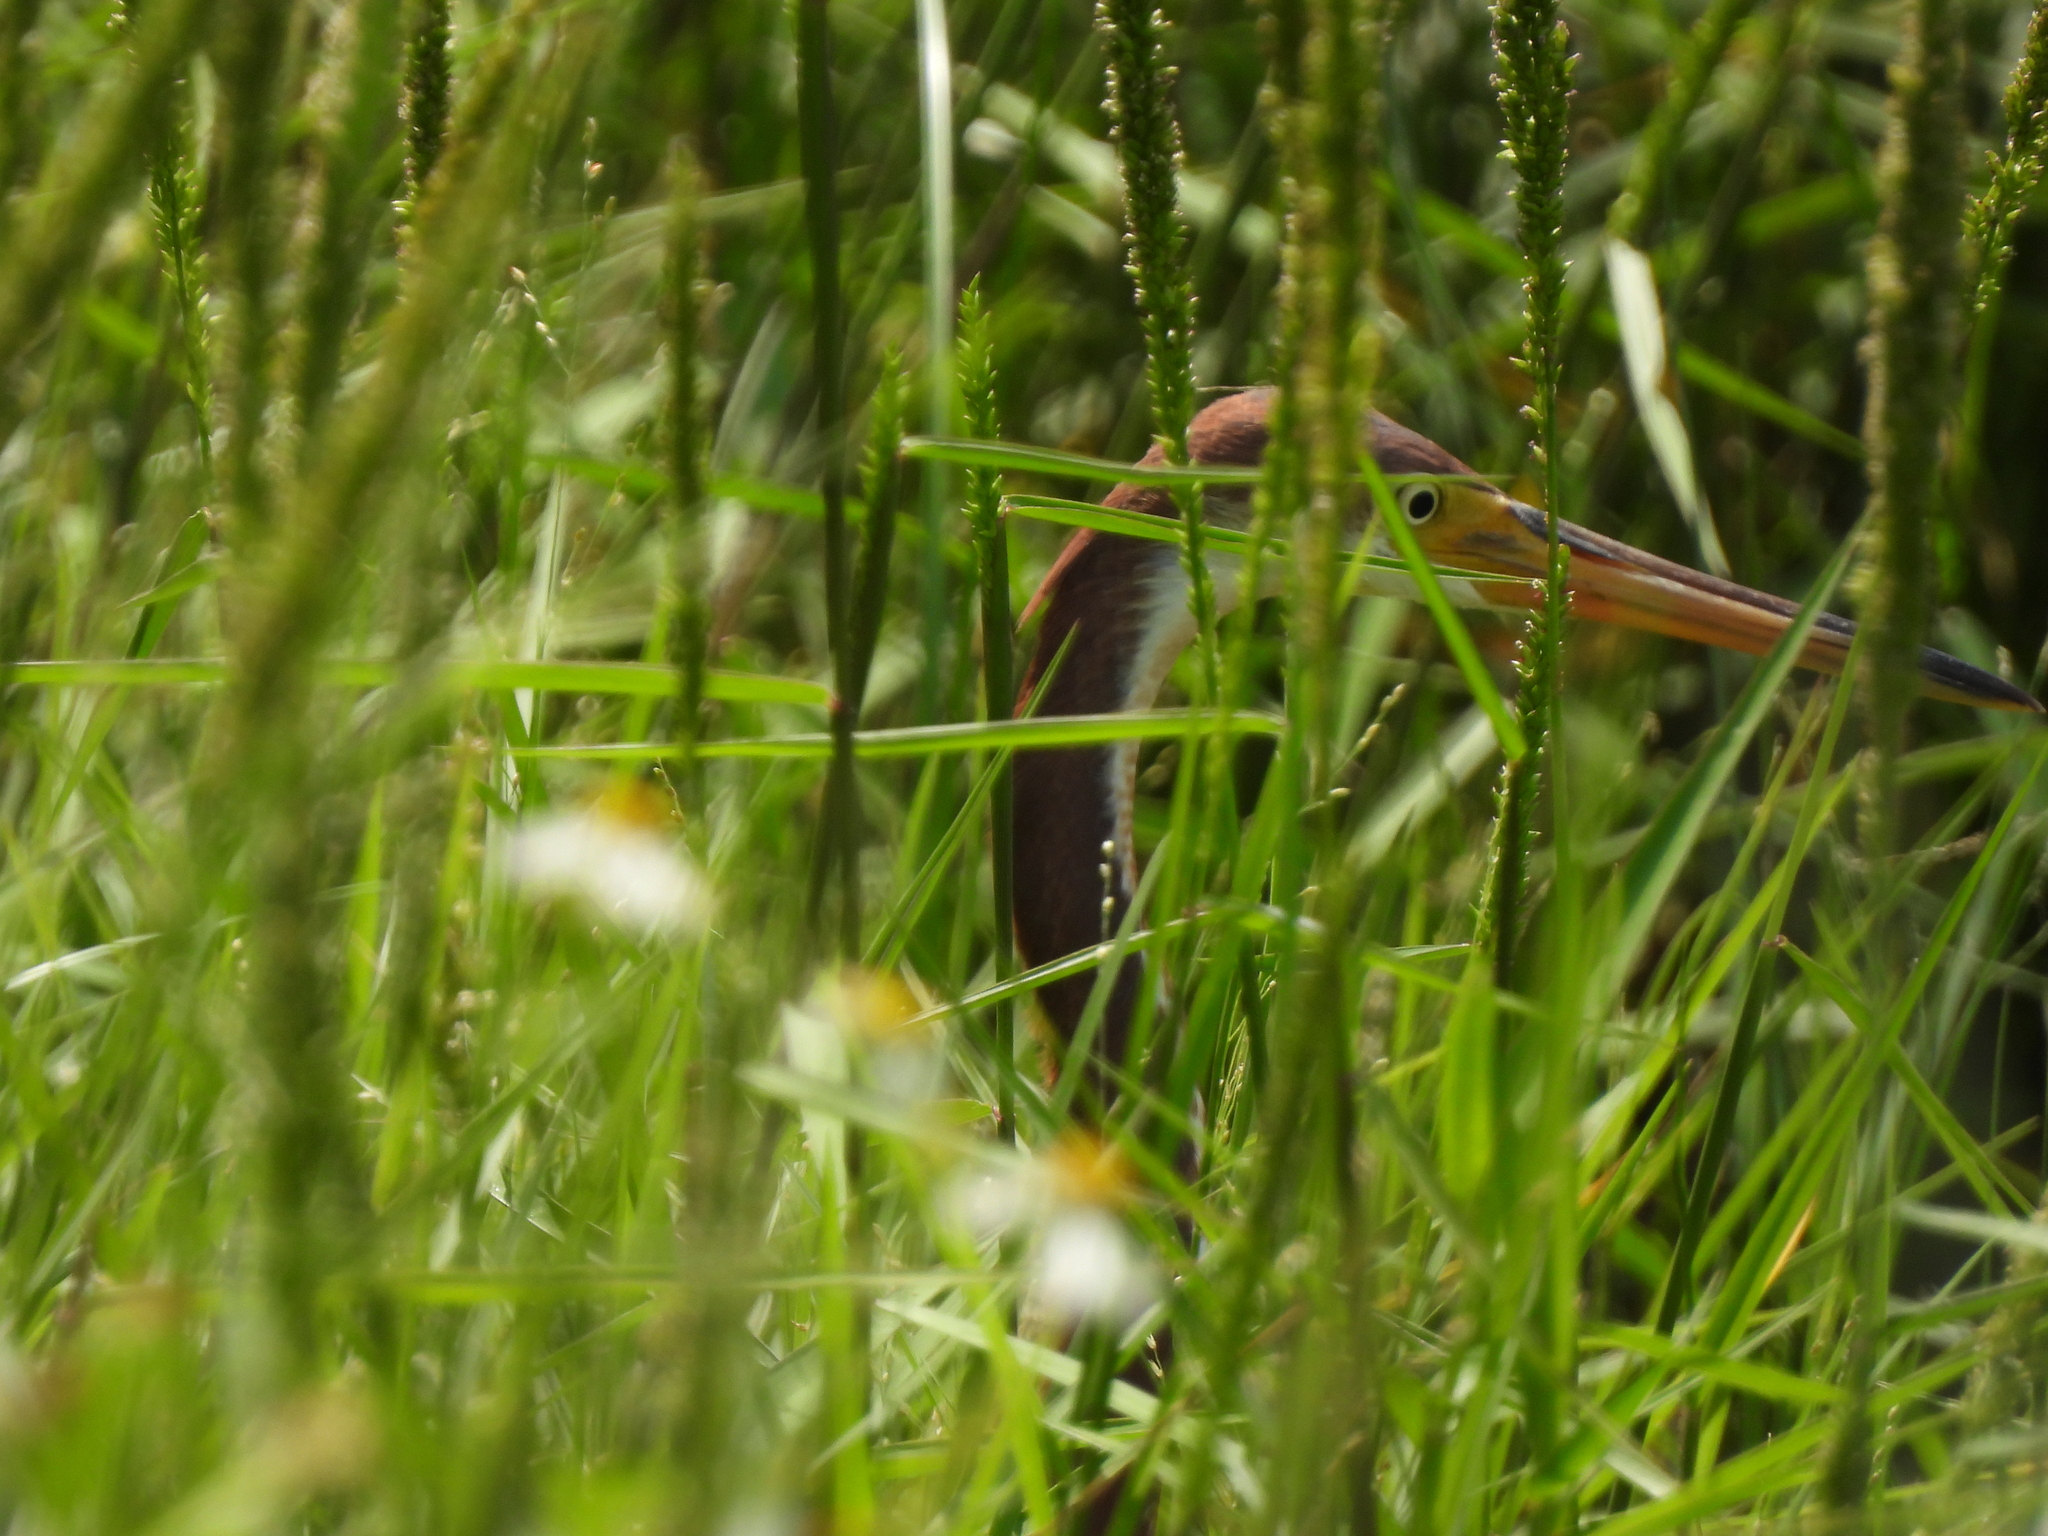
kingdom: Animalia
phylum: Chordata
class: Aves
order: Pelecaniformes
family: Ardeidae
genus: Egretta
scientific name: Egretta tricolor
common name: Tricolored heron
